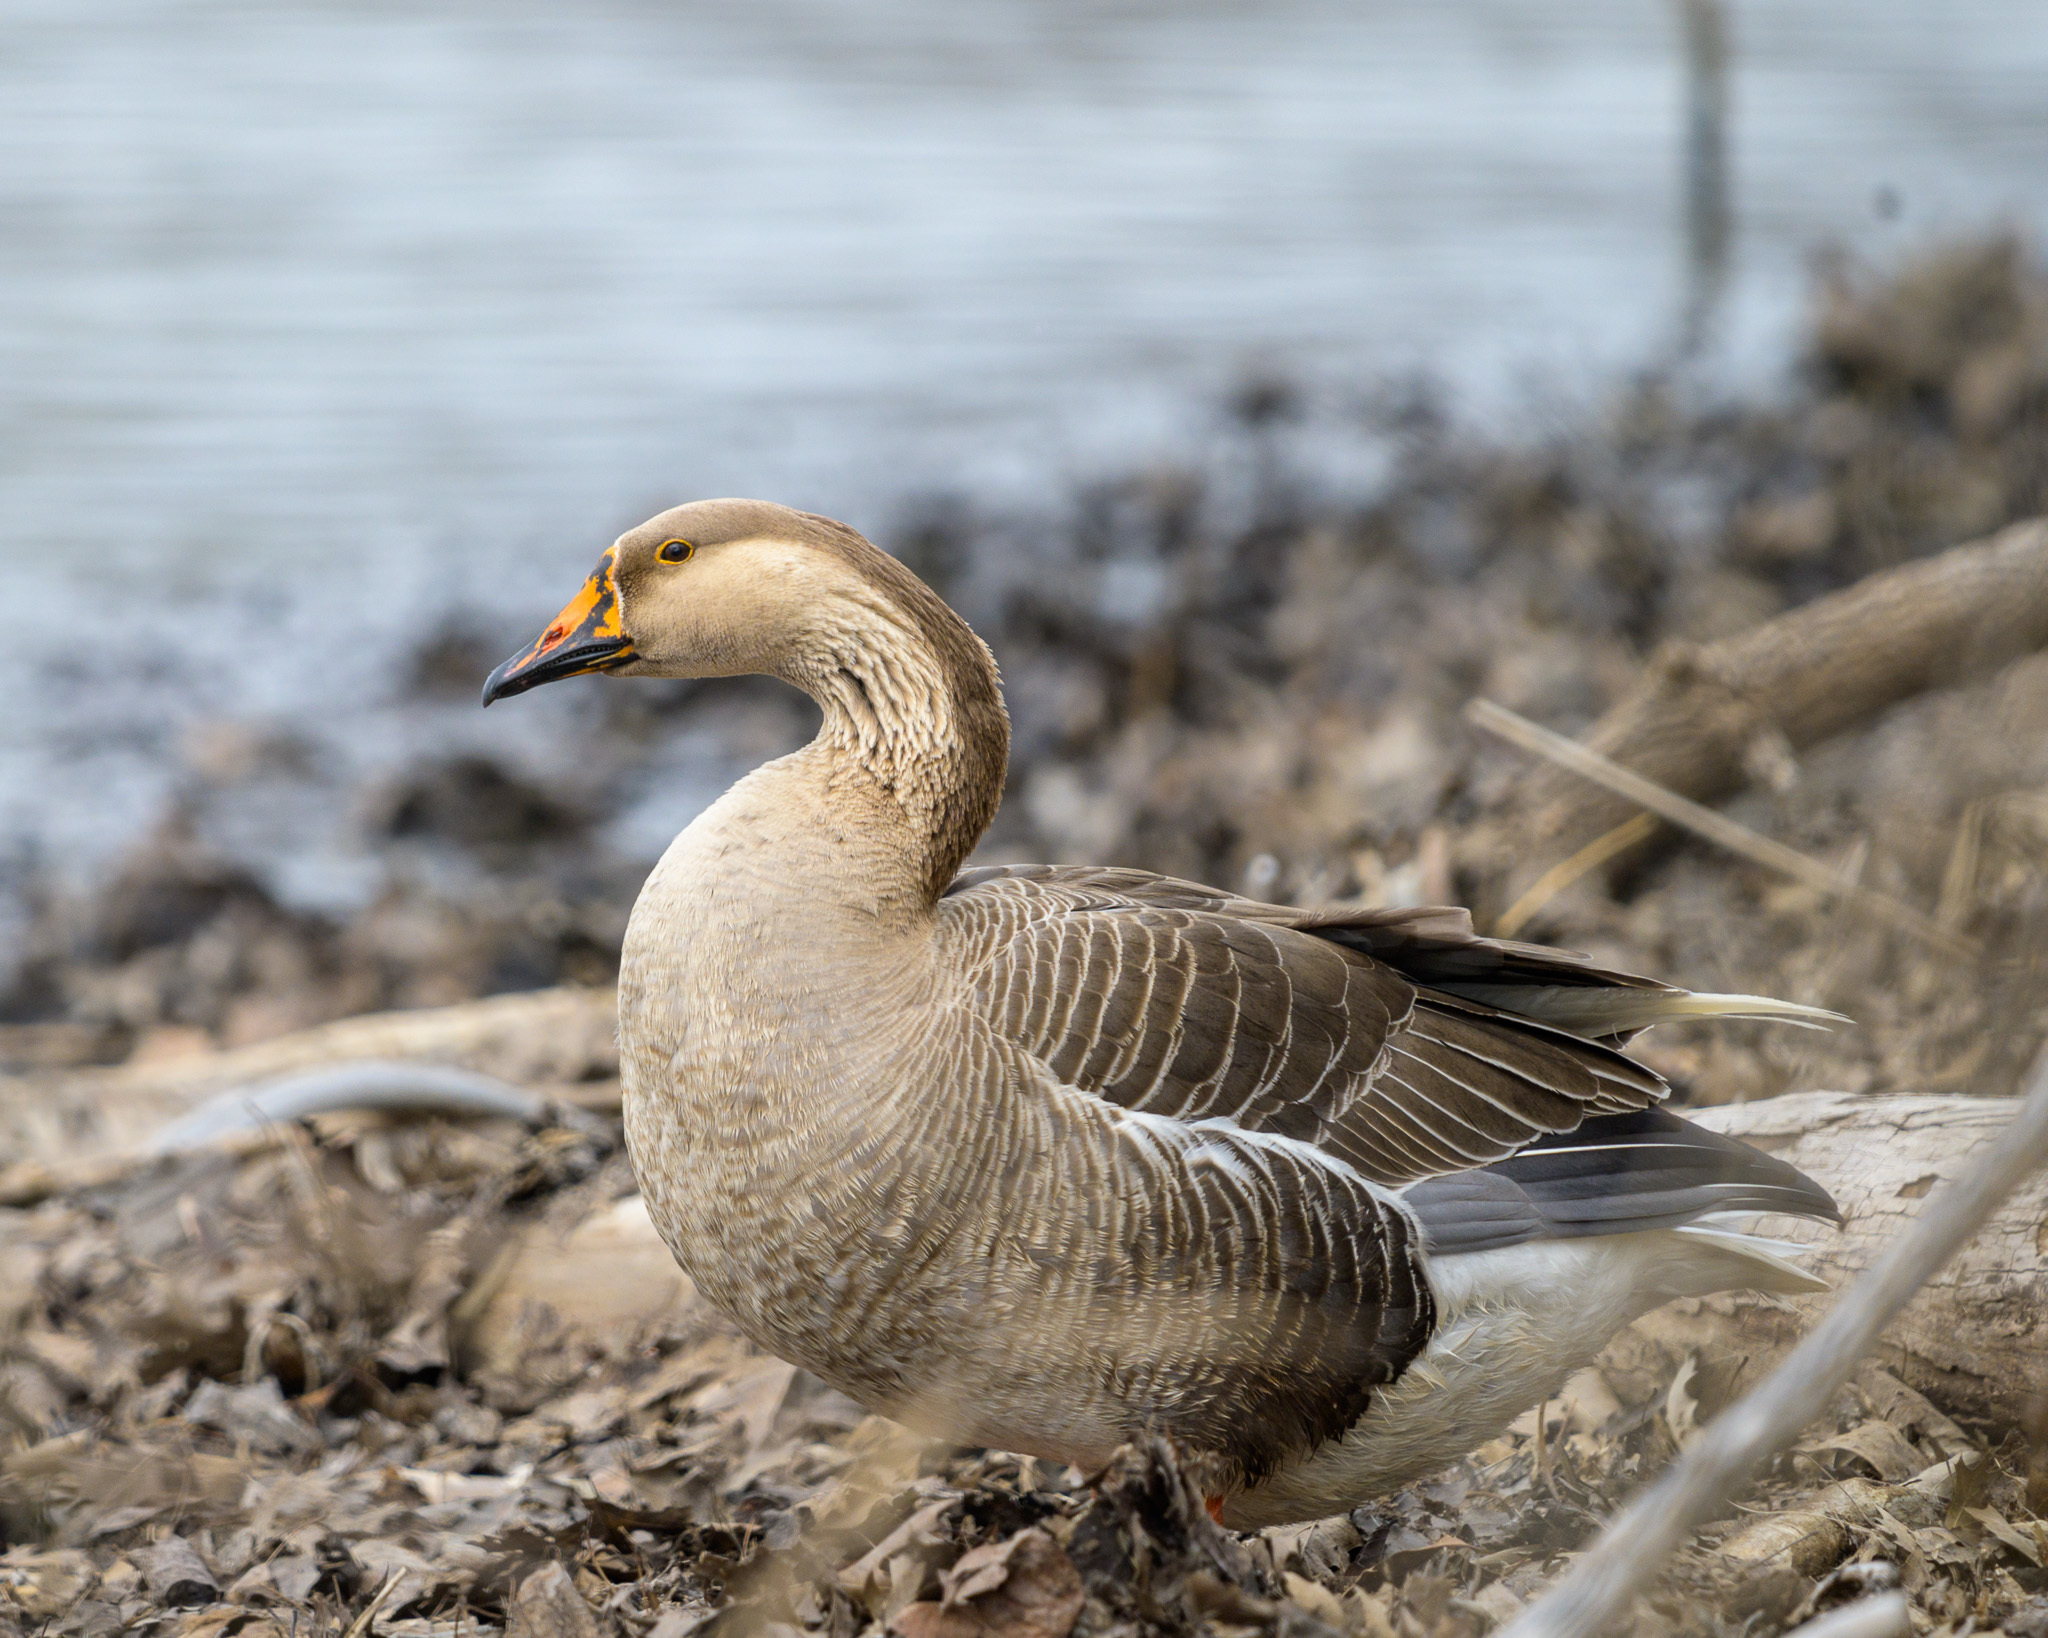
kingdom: Animalia
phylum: Chordata
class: Aves
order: Anseriformes
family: Anatidae
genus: Anser
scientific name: Anser
